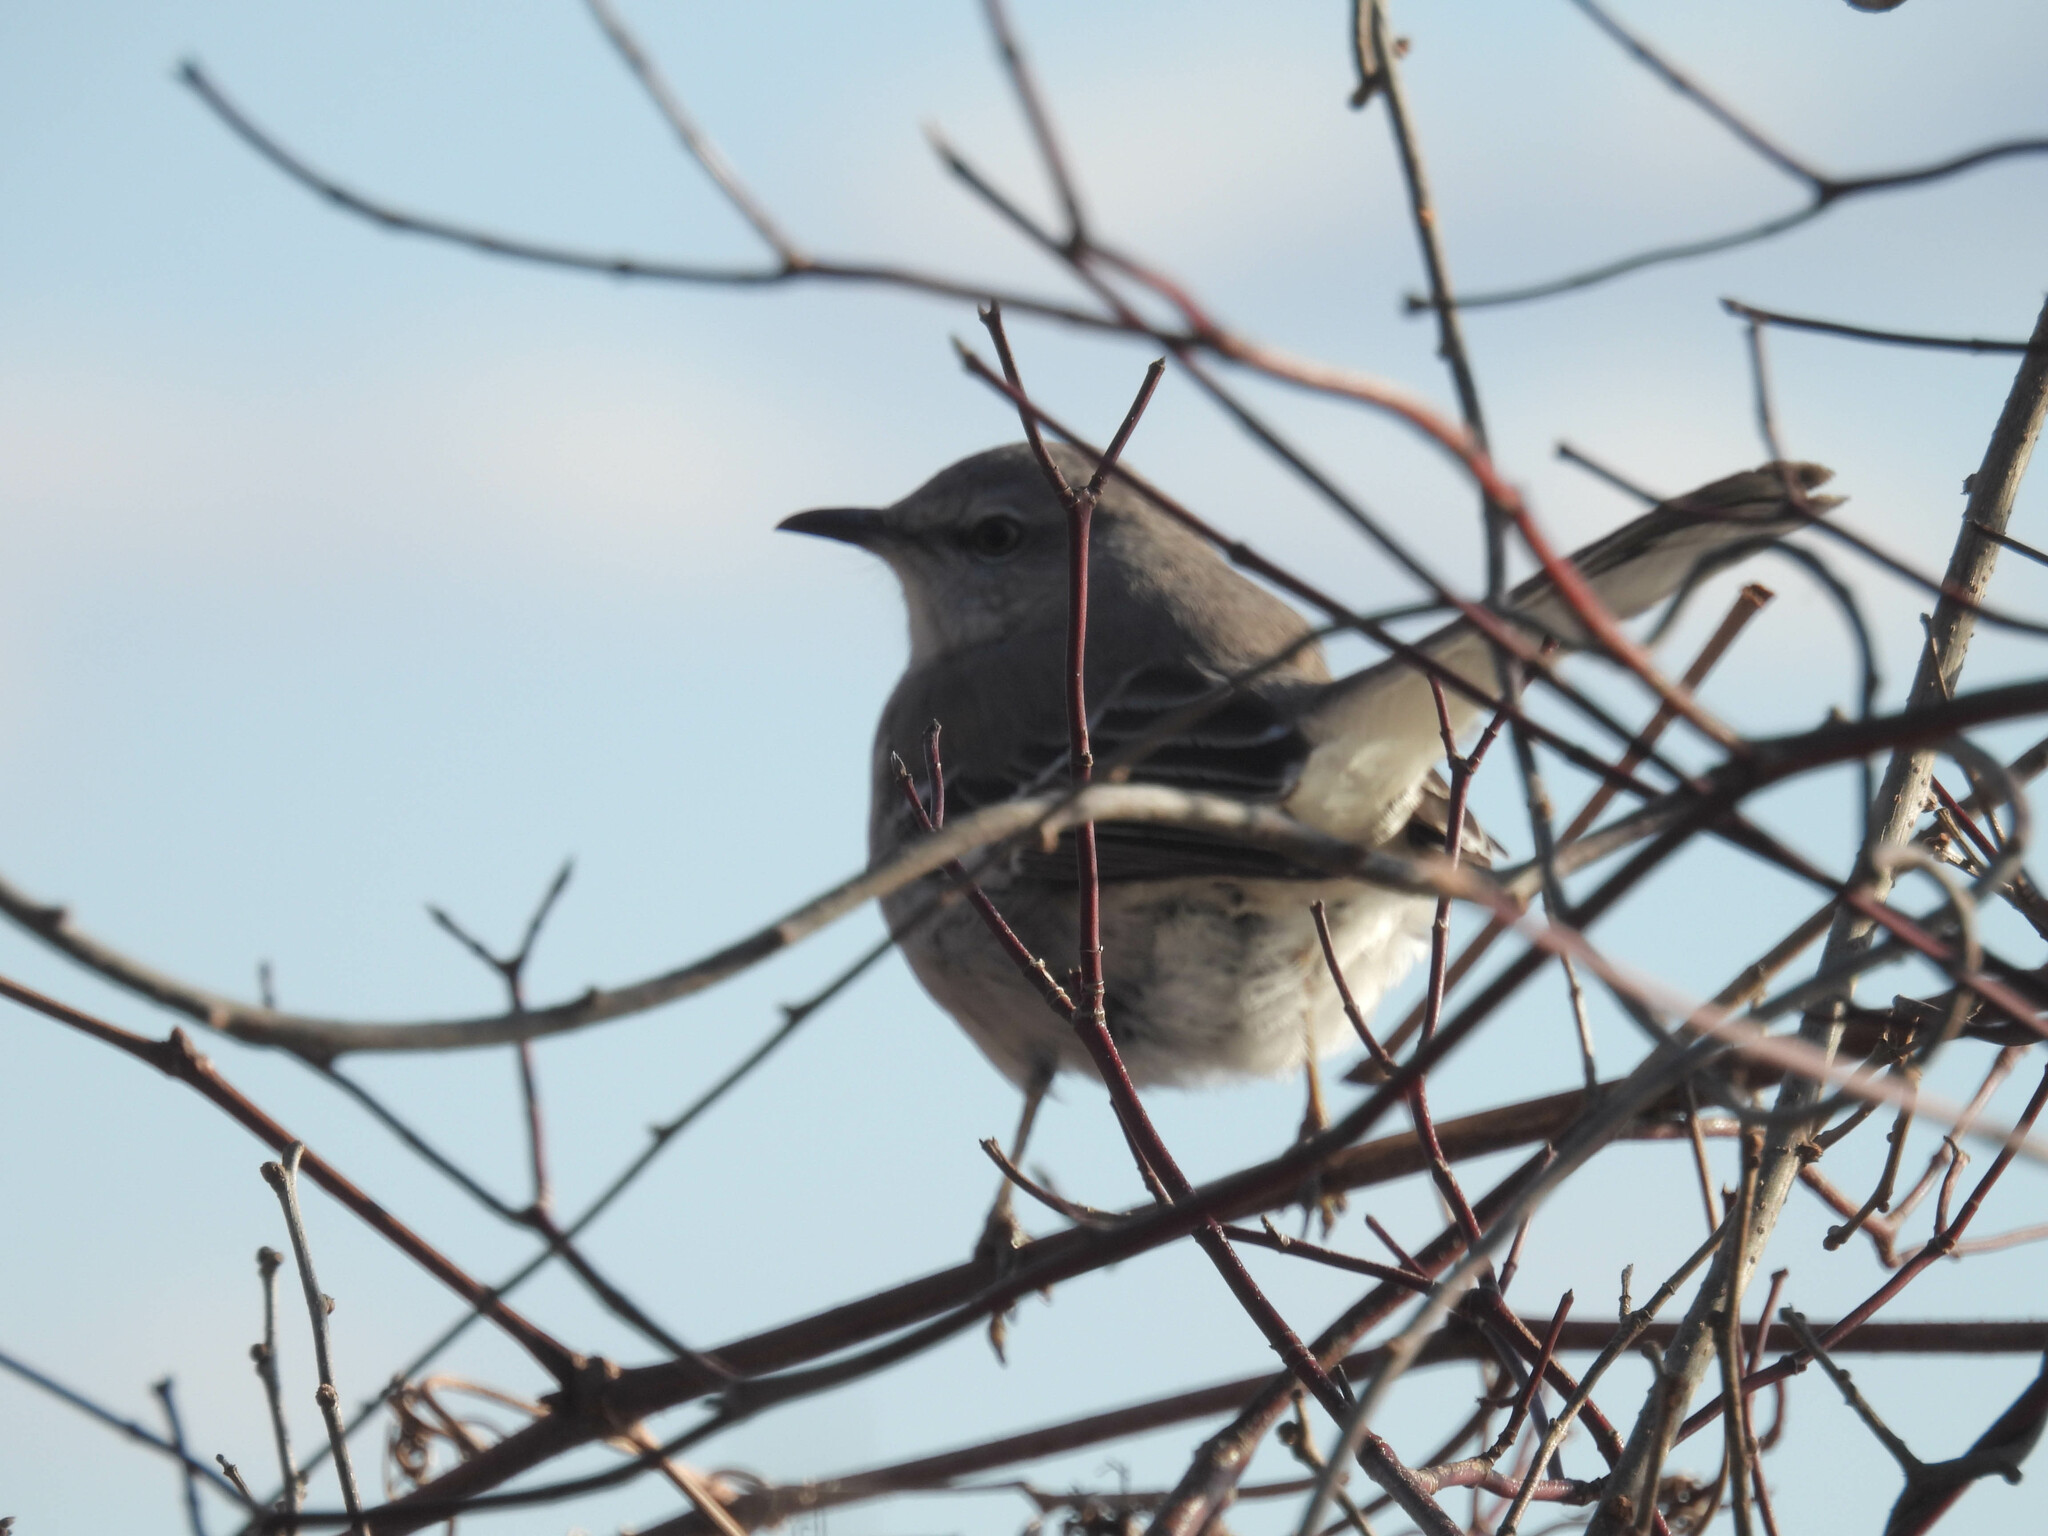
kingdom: Animalia
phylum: Chordata
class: Aves
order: Passeriformes
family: Mimidae
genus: Mimus
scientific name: Mimus polyglottos
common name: Northern mockingbird
